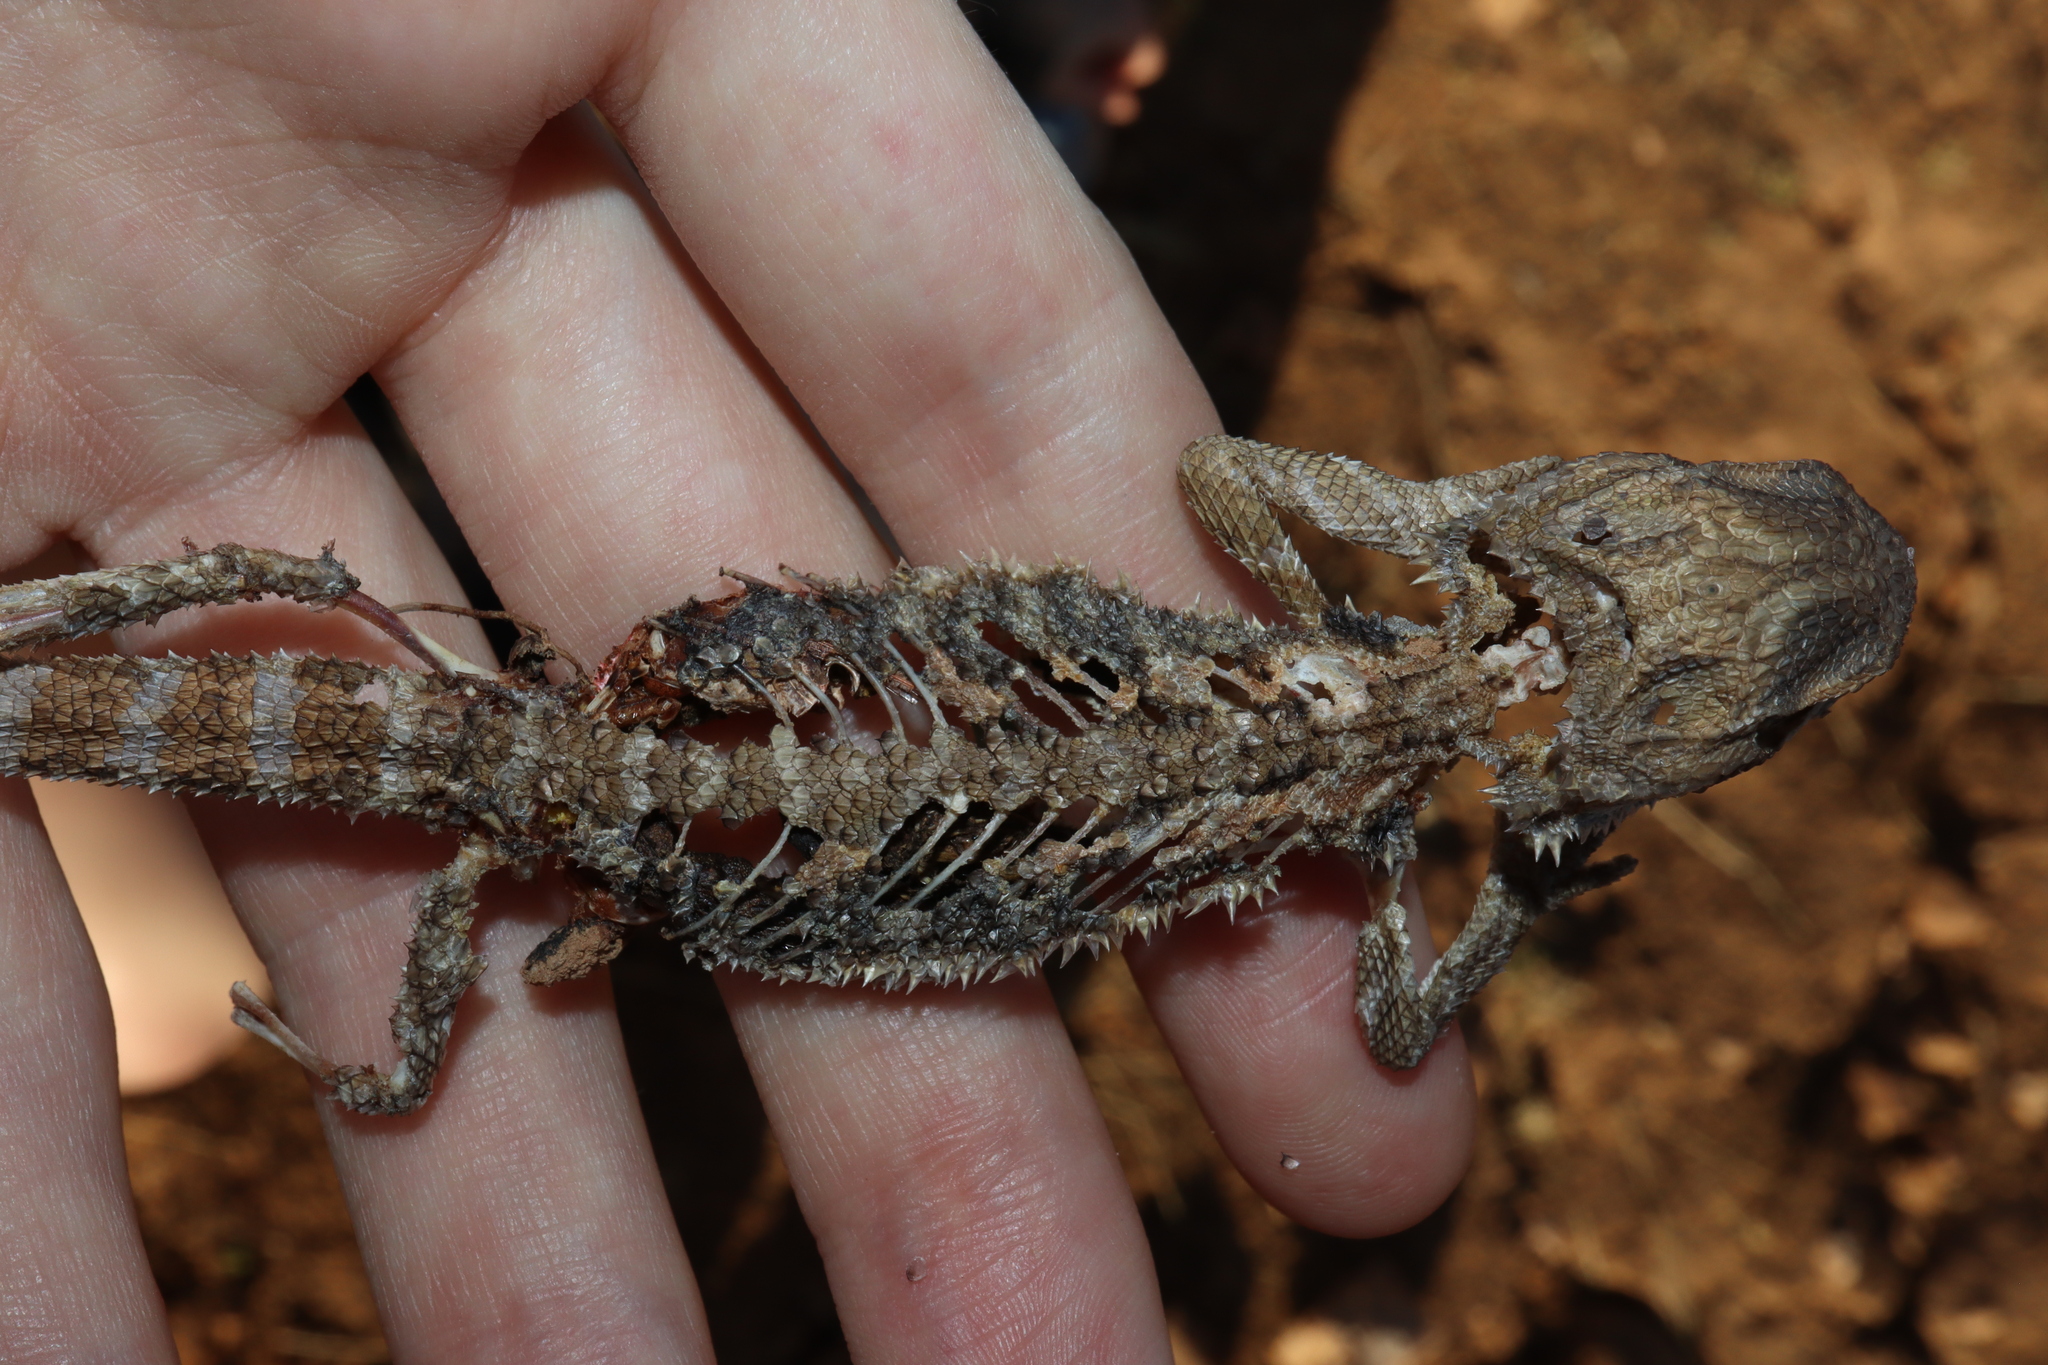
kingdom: Animalia
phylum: Chordata
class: Squamata
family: Agamidae
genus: Pogona
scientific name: Pogona vitticeps
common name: Central bearded dragon
